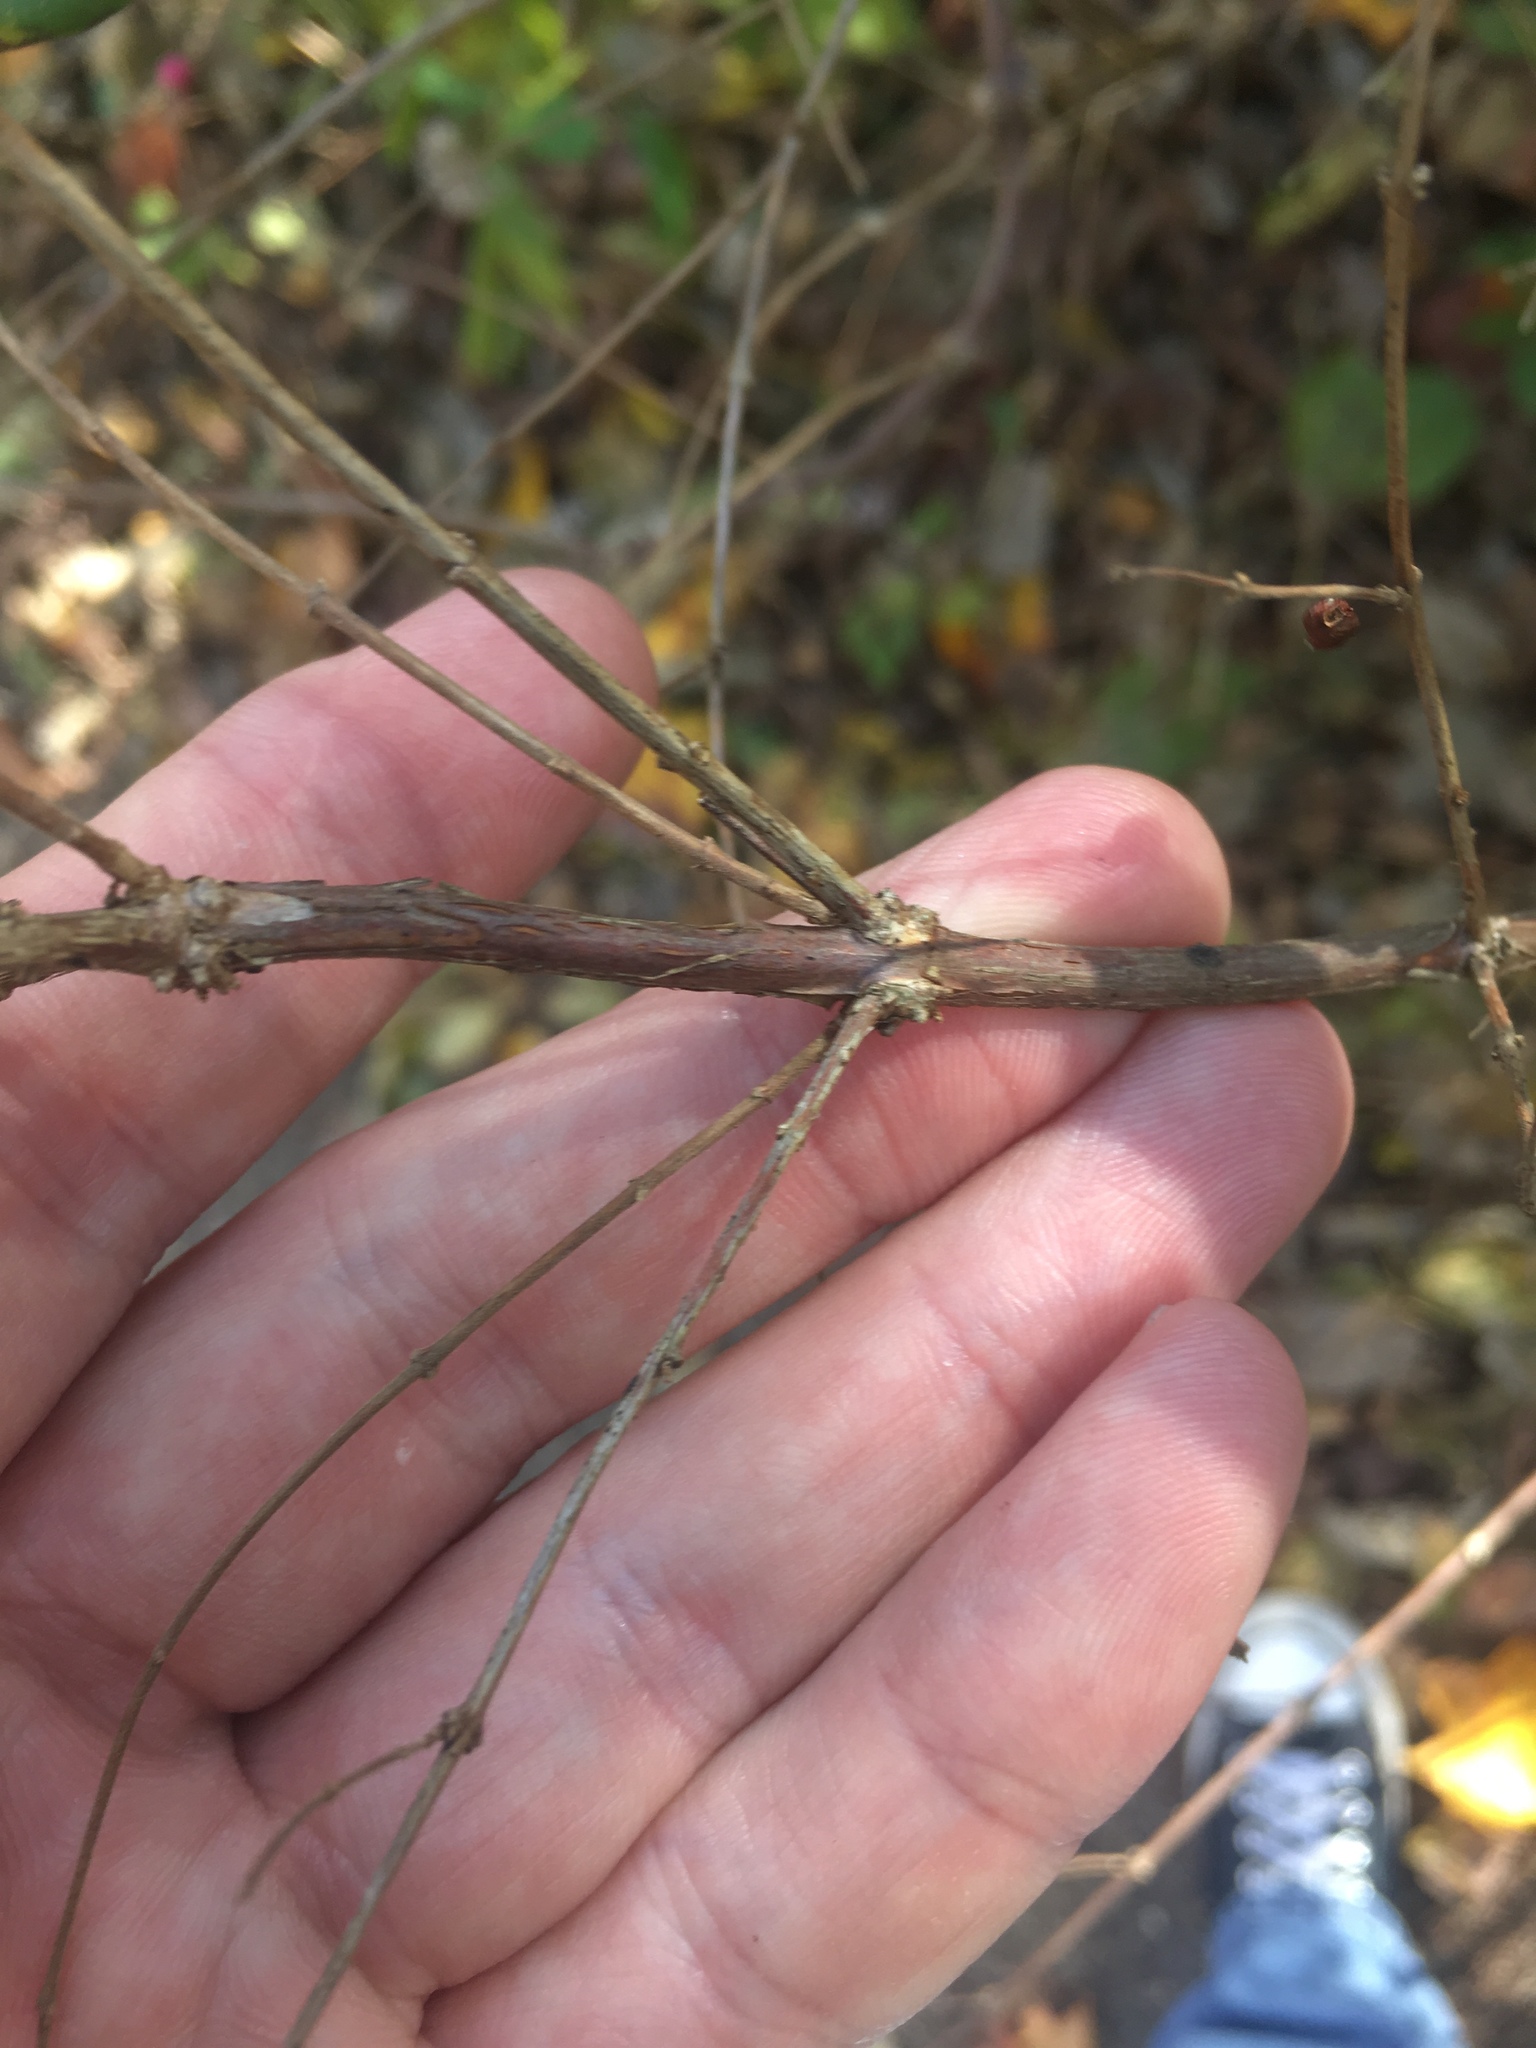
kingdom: Plantae
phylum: Tracheophyta
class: Magnoliopsida
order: Dipsacales
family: Caprifoliaceae
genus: Symphoricarpos
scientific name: Symphoricarpos orbiculatus
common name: Coralberry
